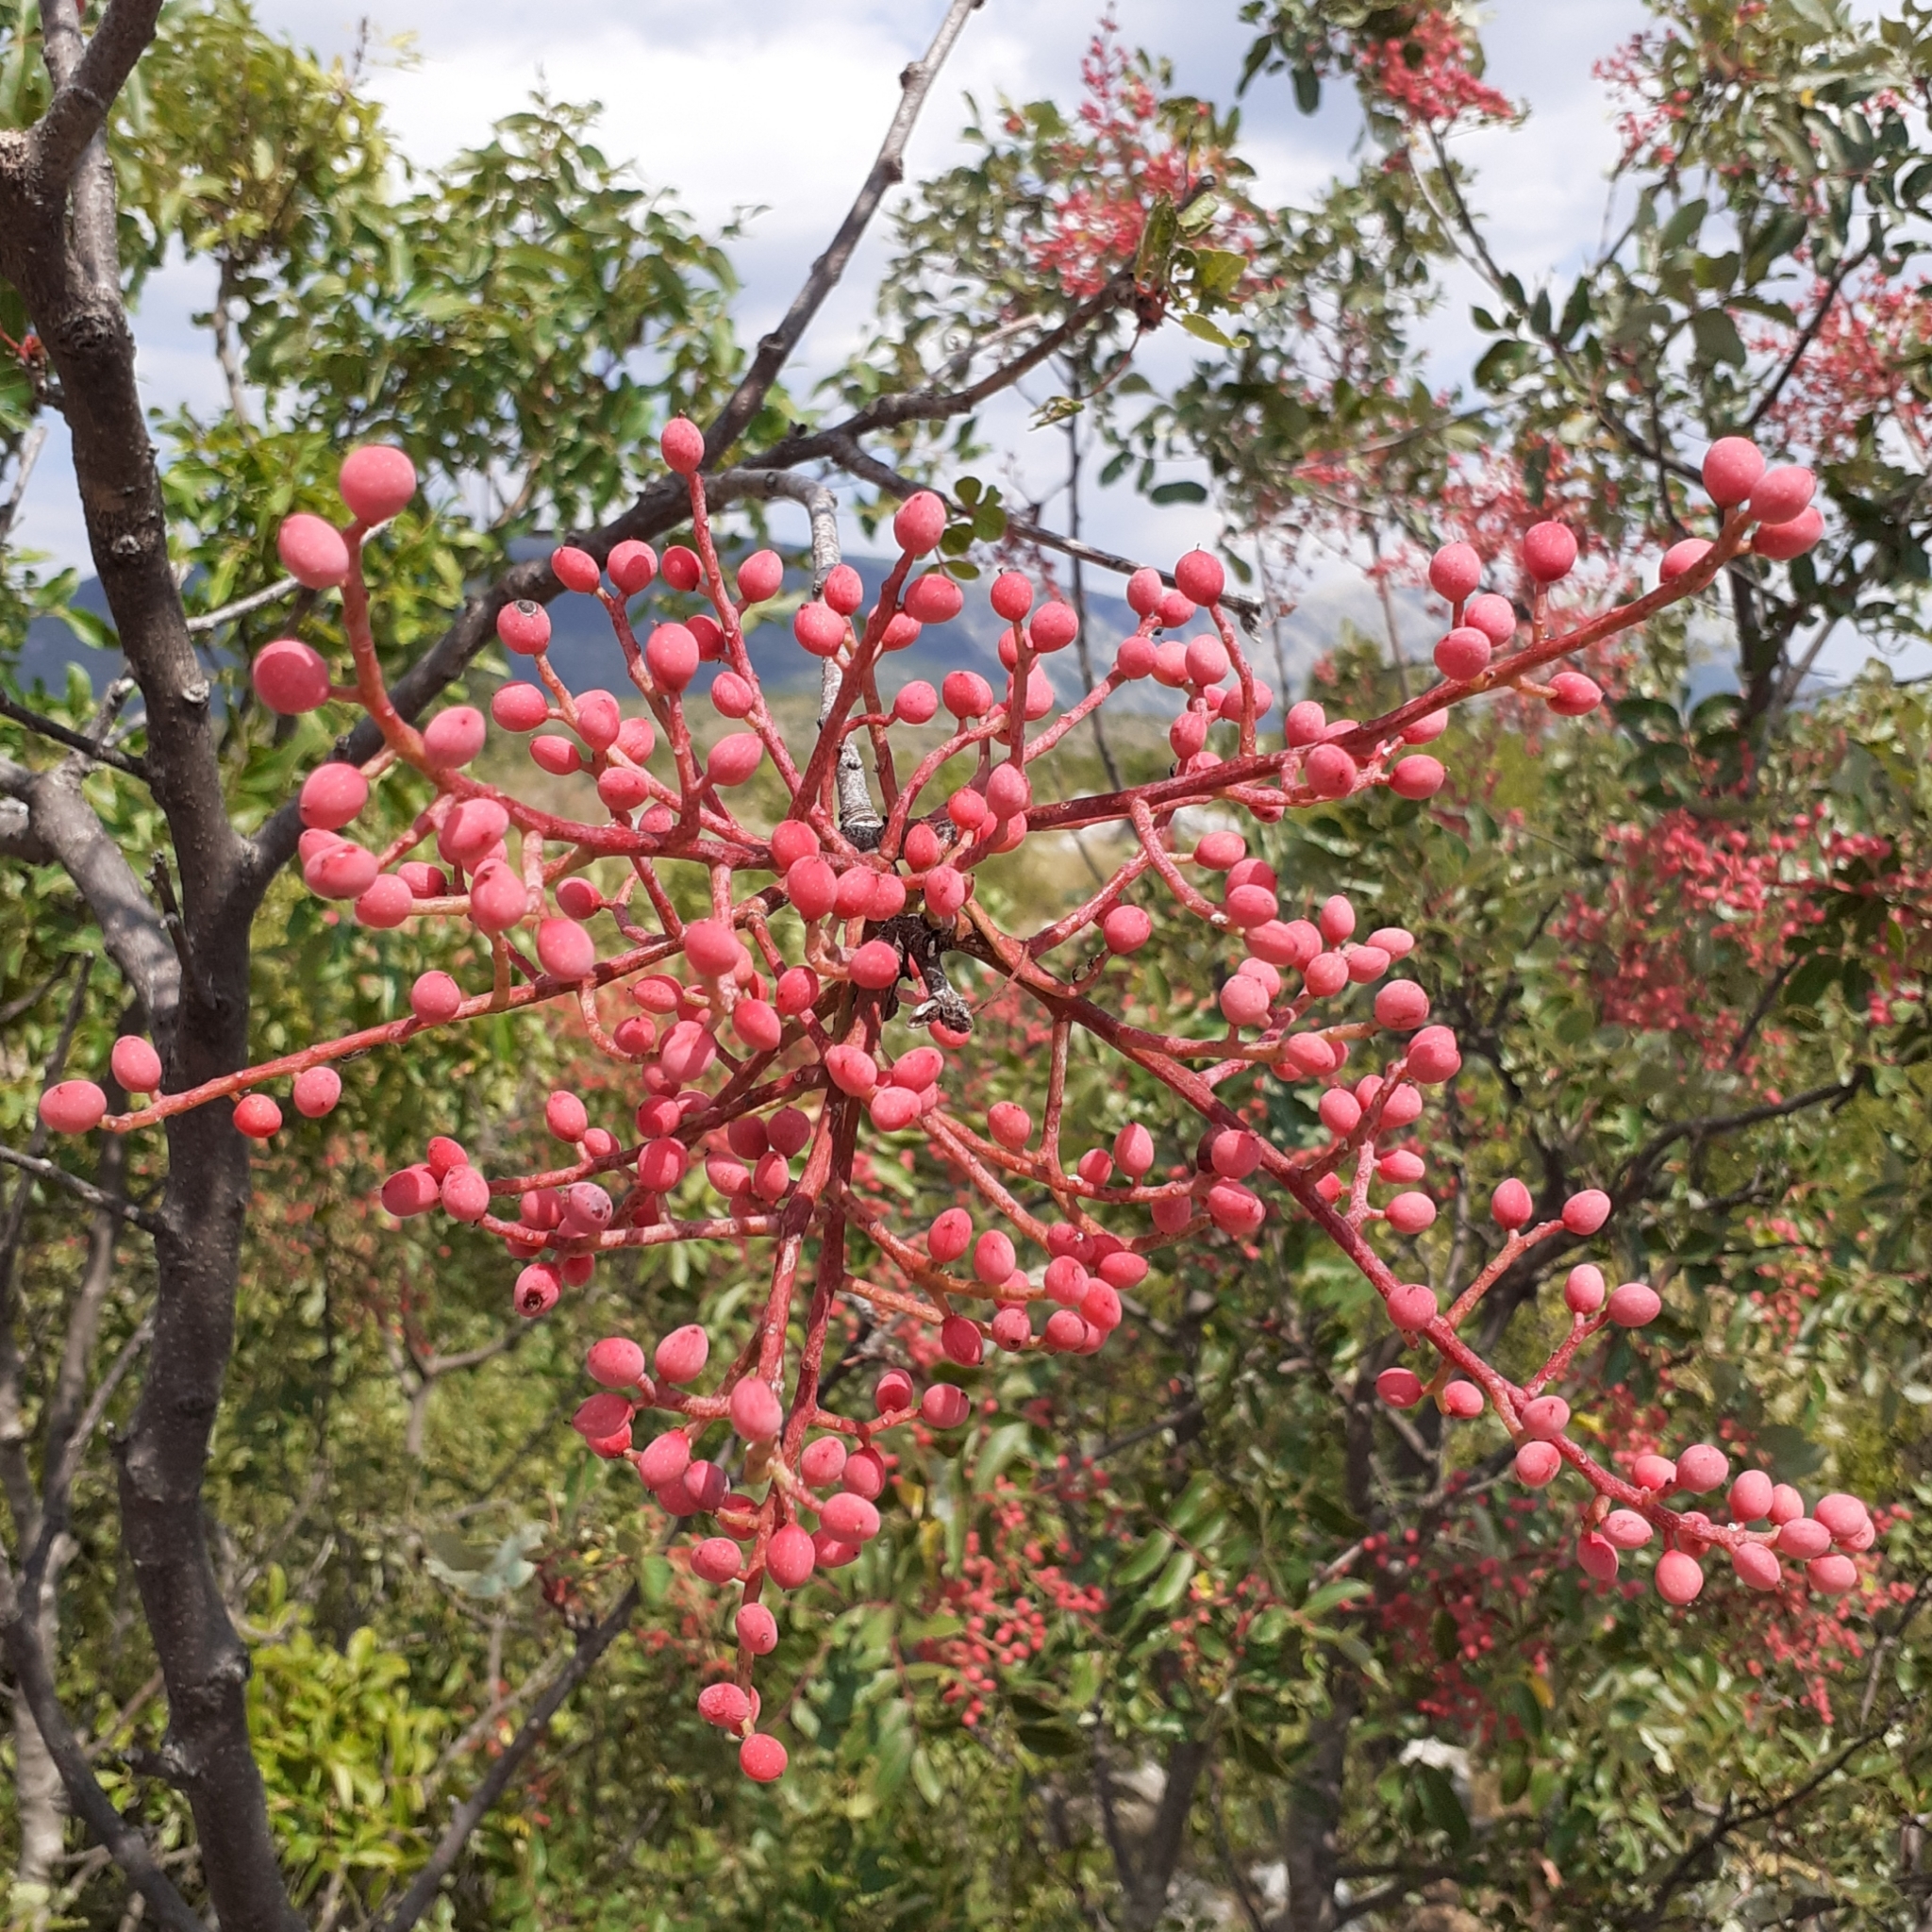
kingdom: Plantae
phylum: Tracheophyta
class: Magnoliopsida
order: Sapindales
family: Anacardiaceae
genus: Pistacia
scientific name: Pistacia terebinthus
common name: Terebinth
